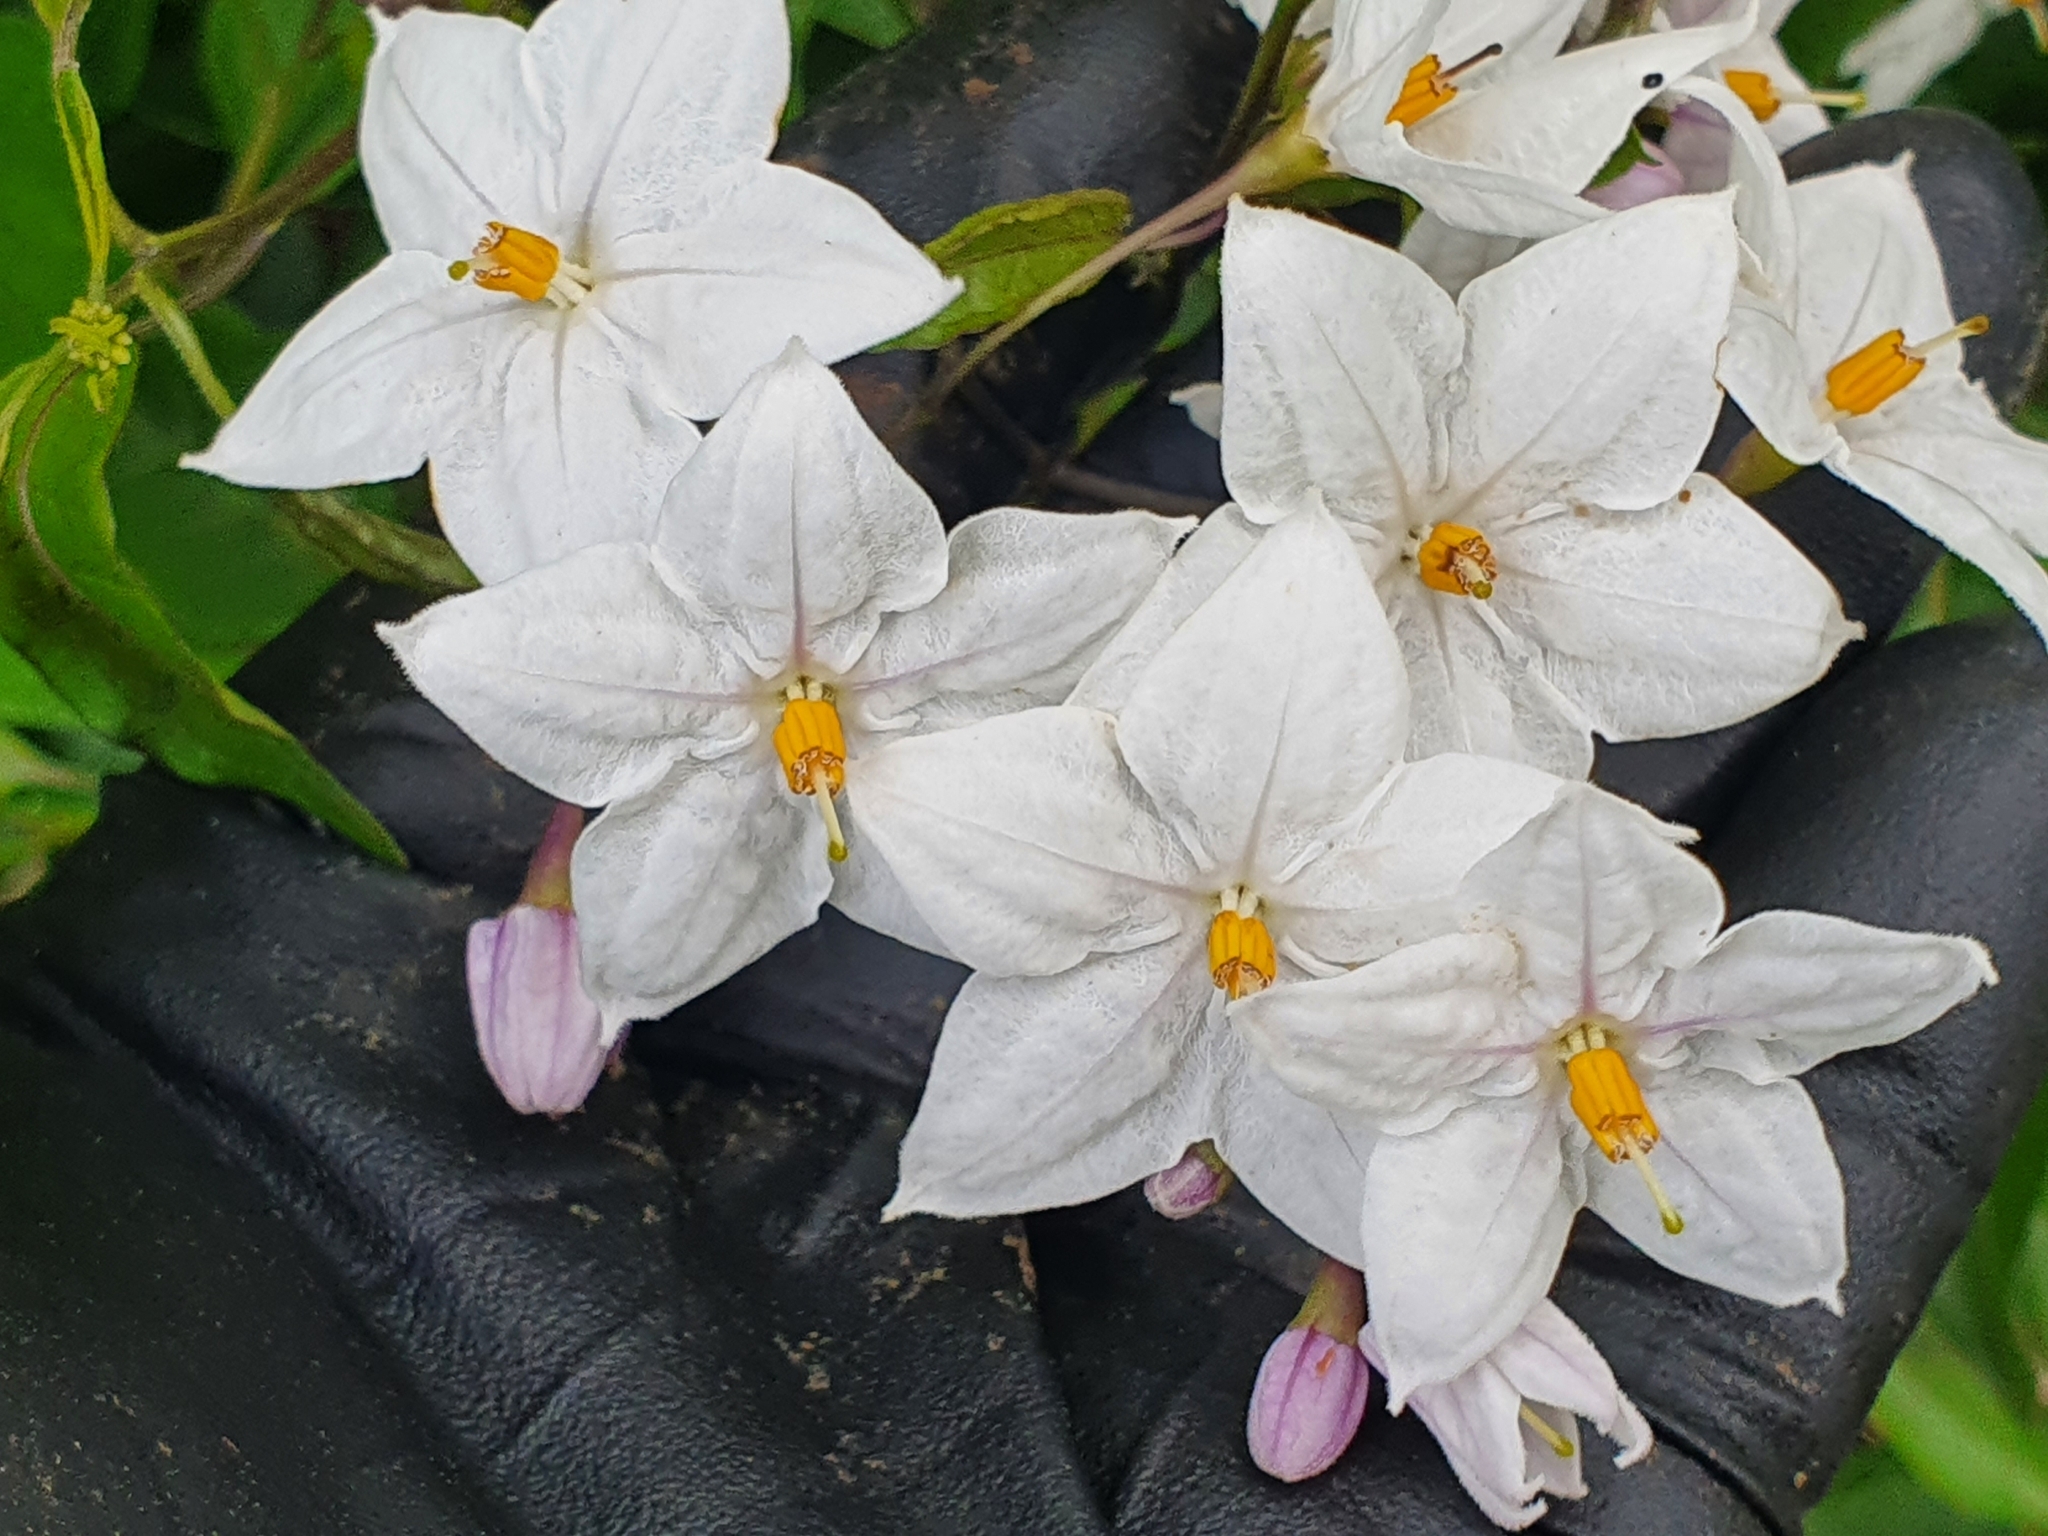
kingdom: Plantae
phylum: Tracheophyta
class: Magnoliopsida
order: Solanales
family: Solanaceae
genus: Solanum
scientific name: Solanum laxum
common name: Nightshade
